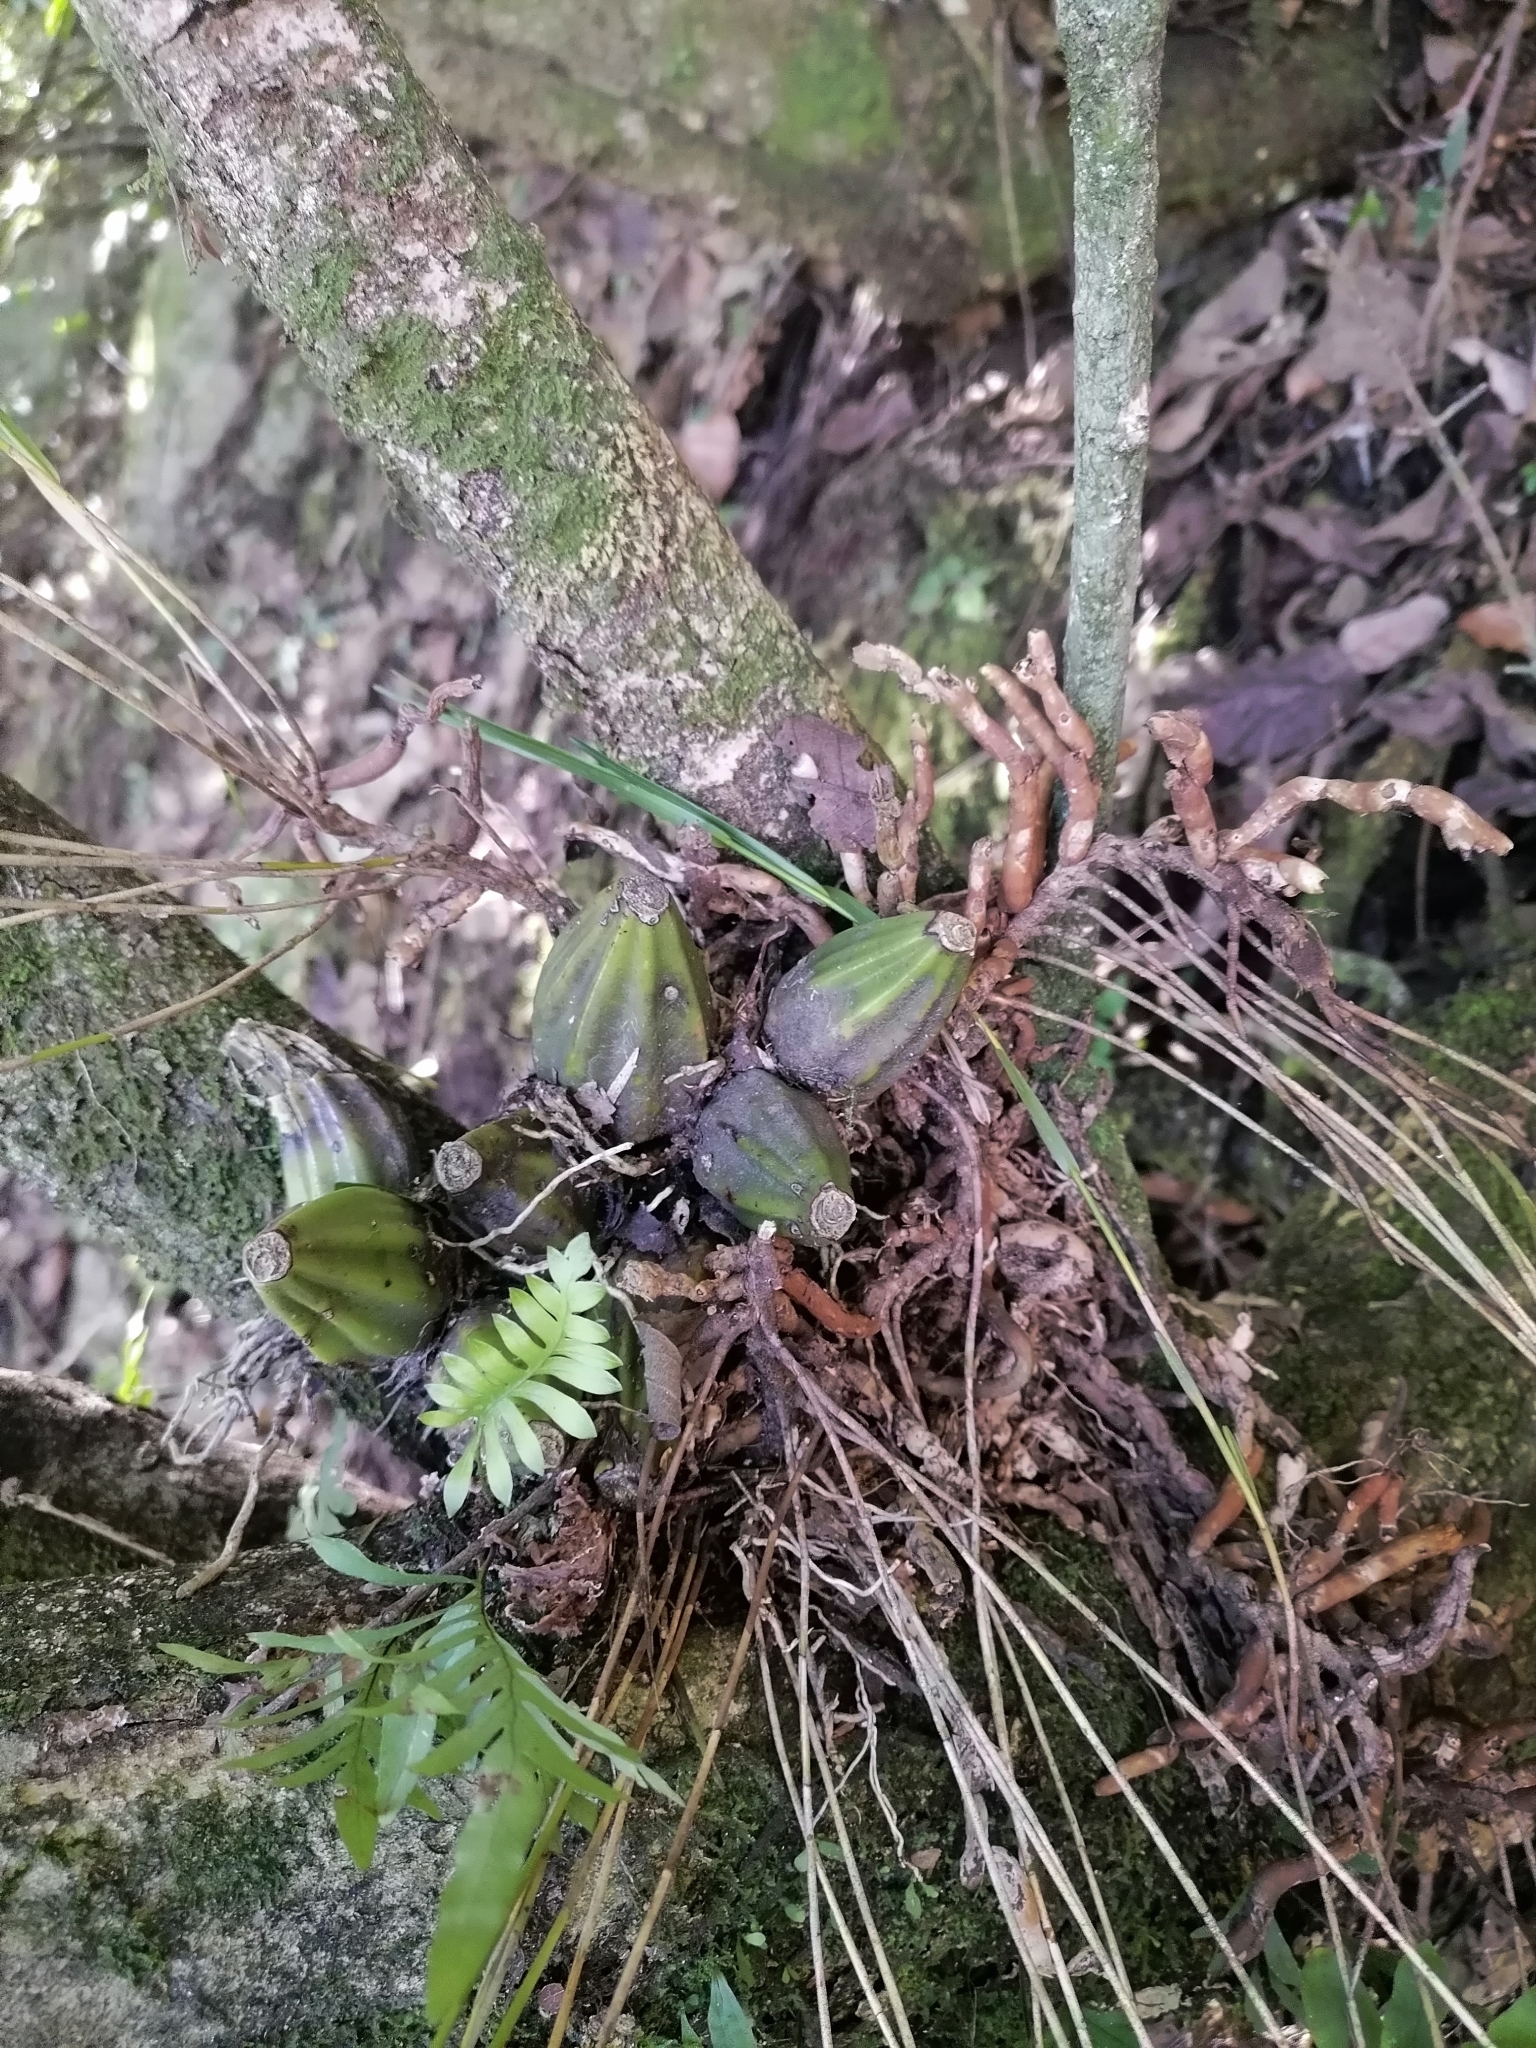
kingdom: Plantae
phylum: Tracheophyta
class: Liliopsida
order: Asparagales
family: Orchidaceae
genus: Gongora
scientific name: Gongora galeata
